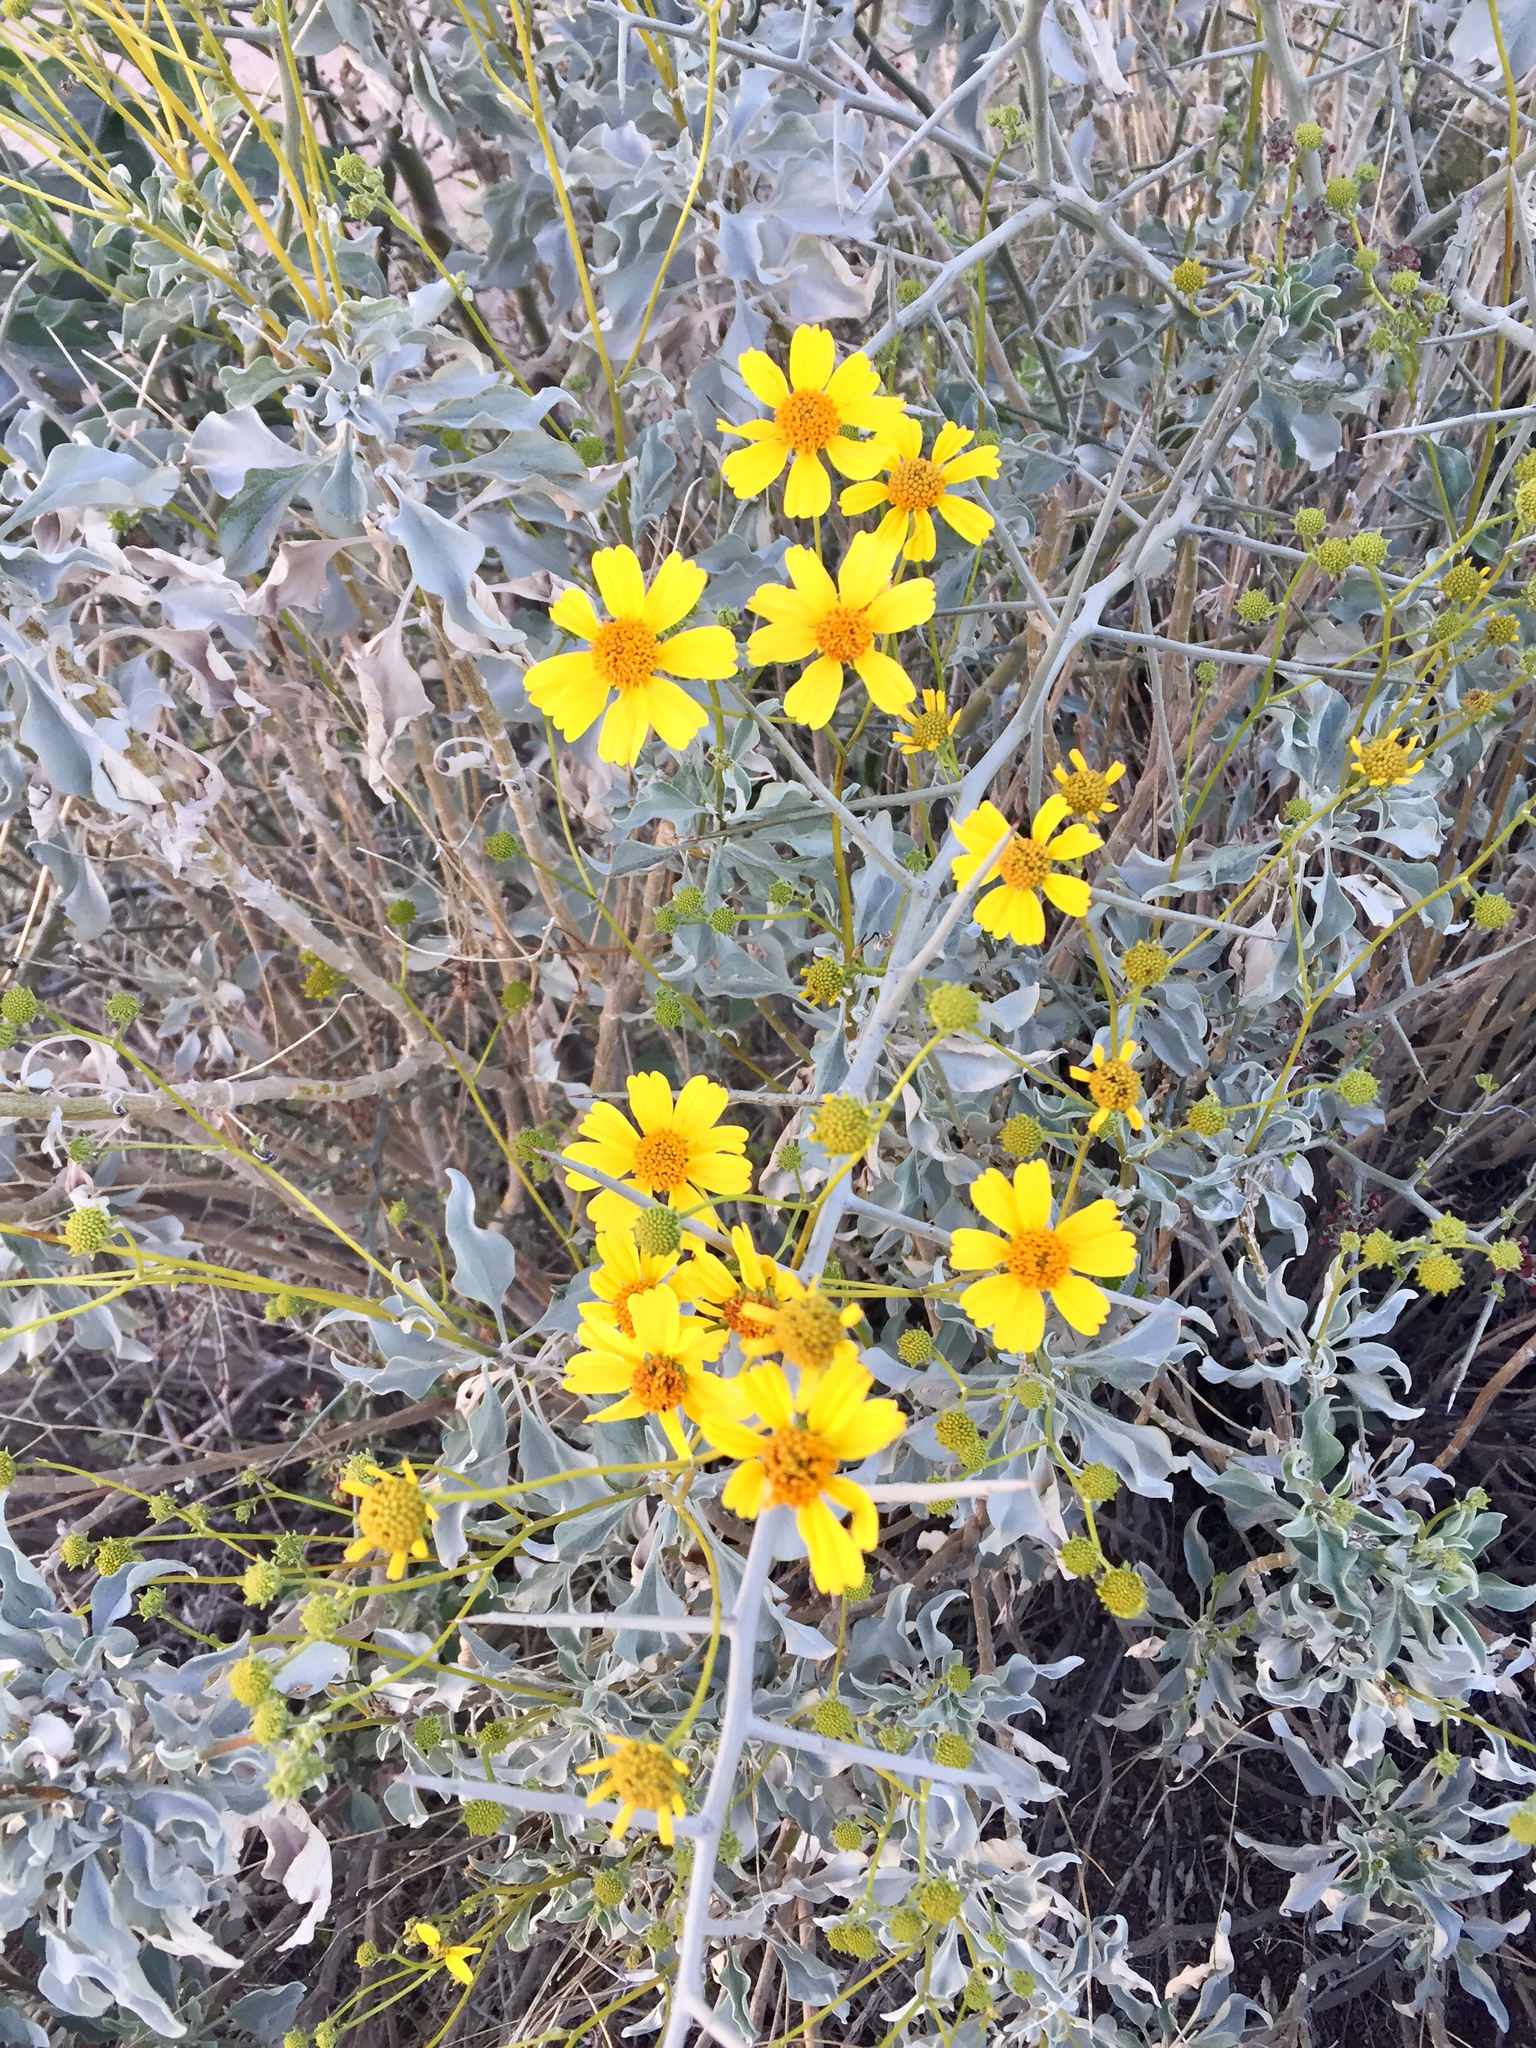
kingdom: Plantae
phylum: Tracheophyta
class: Magnoliopsida
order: Asterales
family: Asteraceae
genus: Encelia
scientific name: Encelia farinosa
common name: Brittlebush
